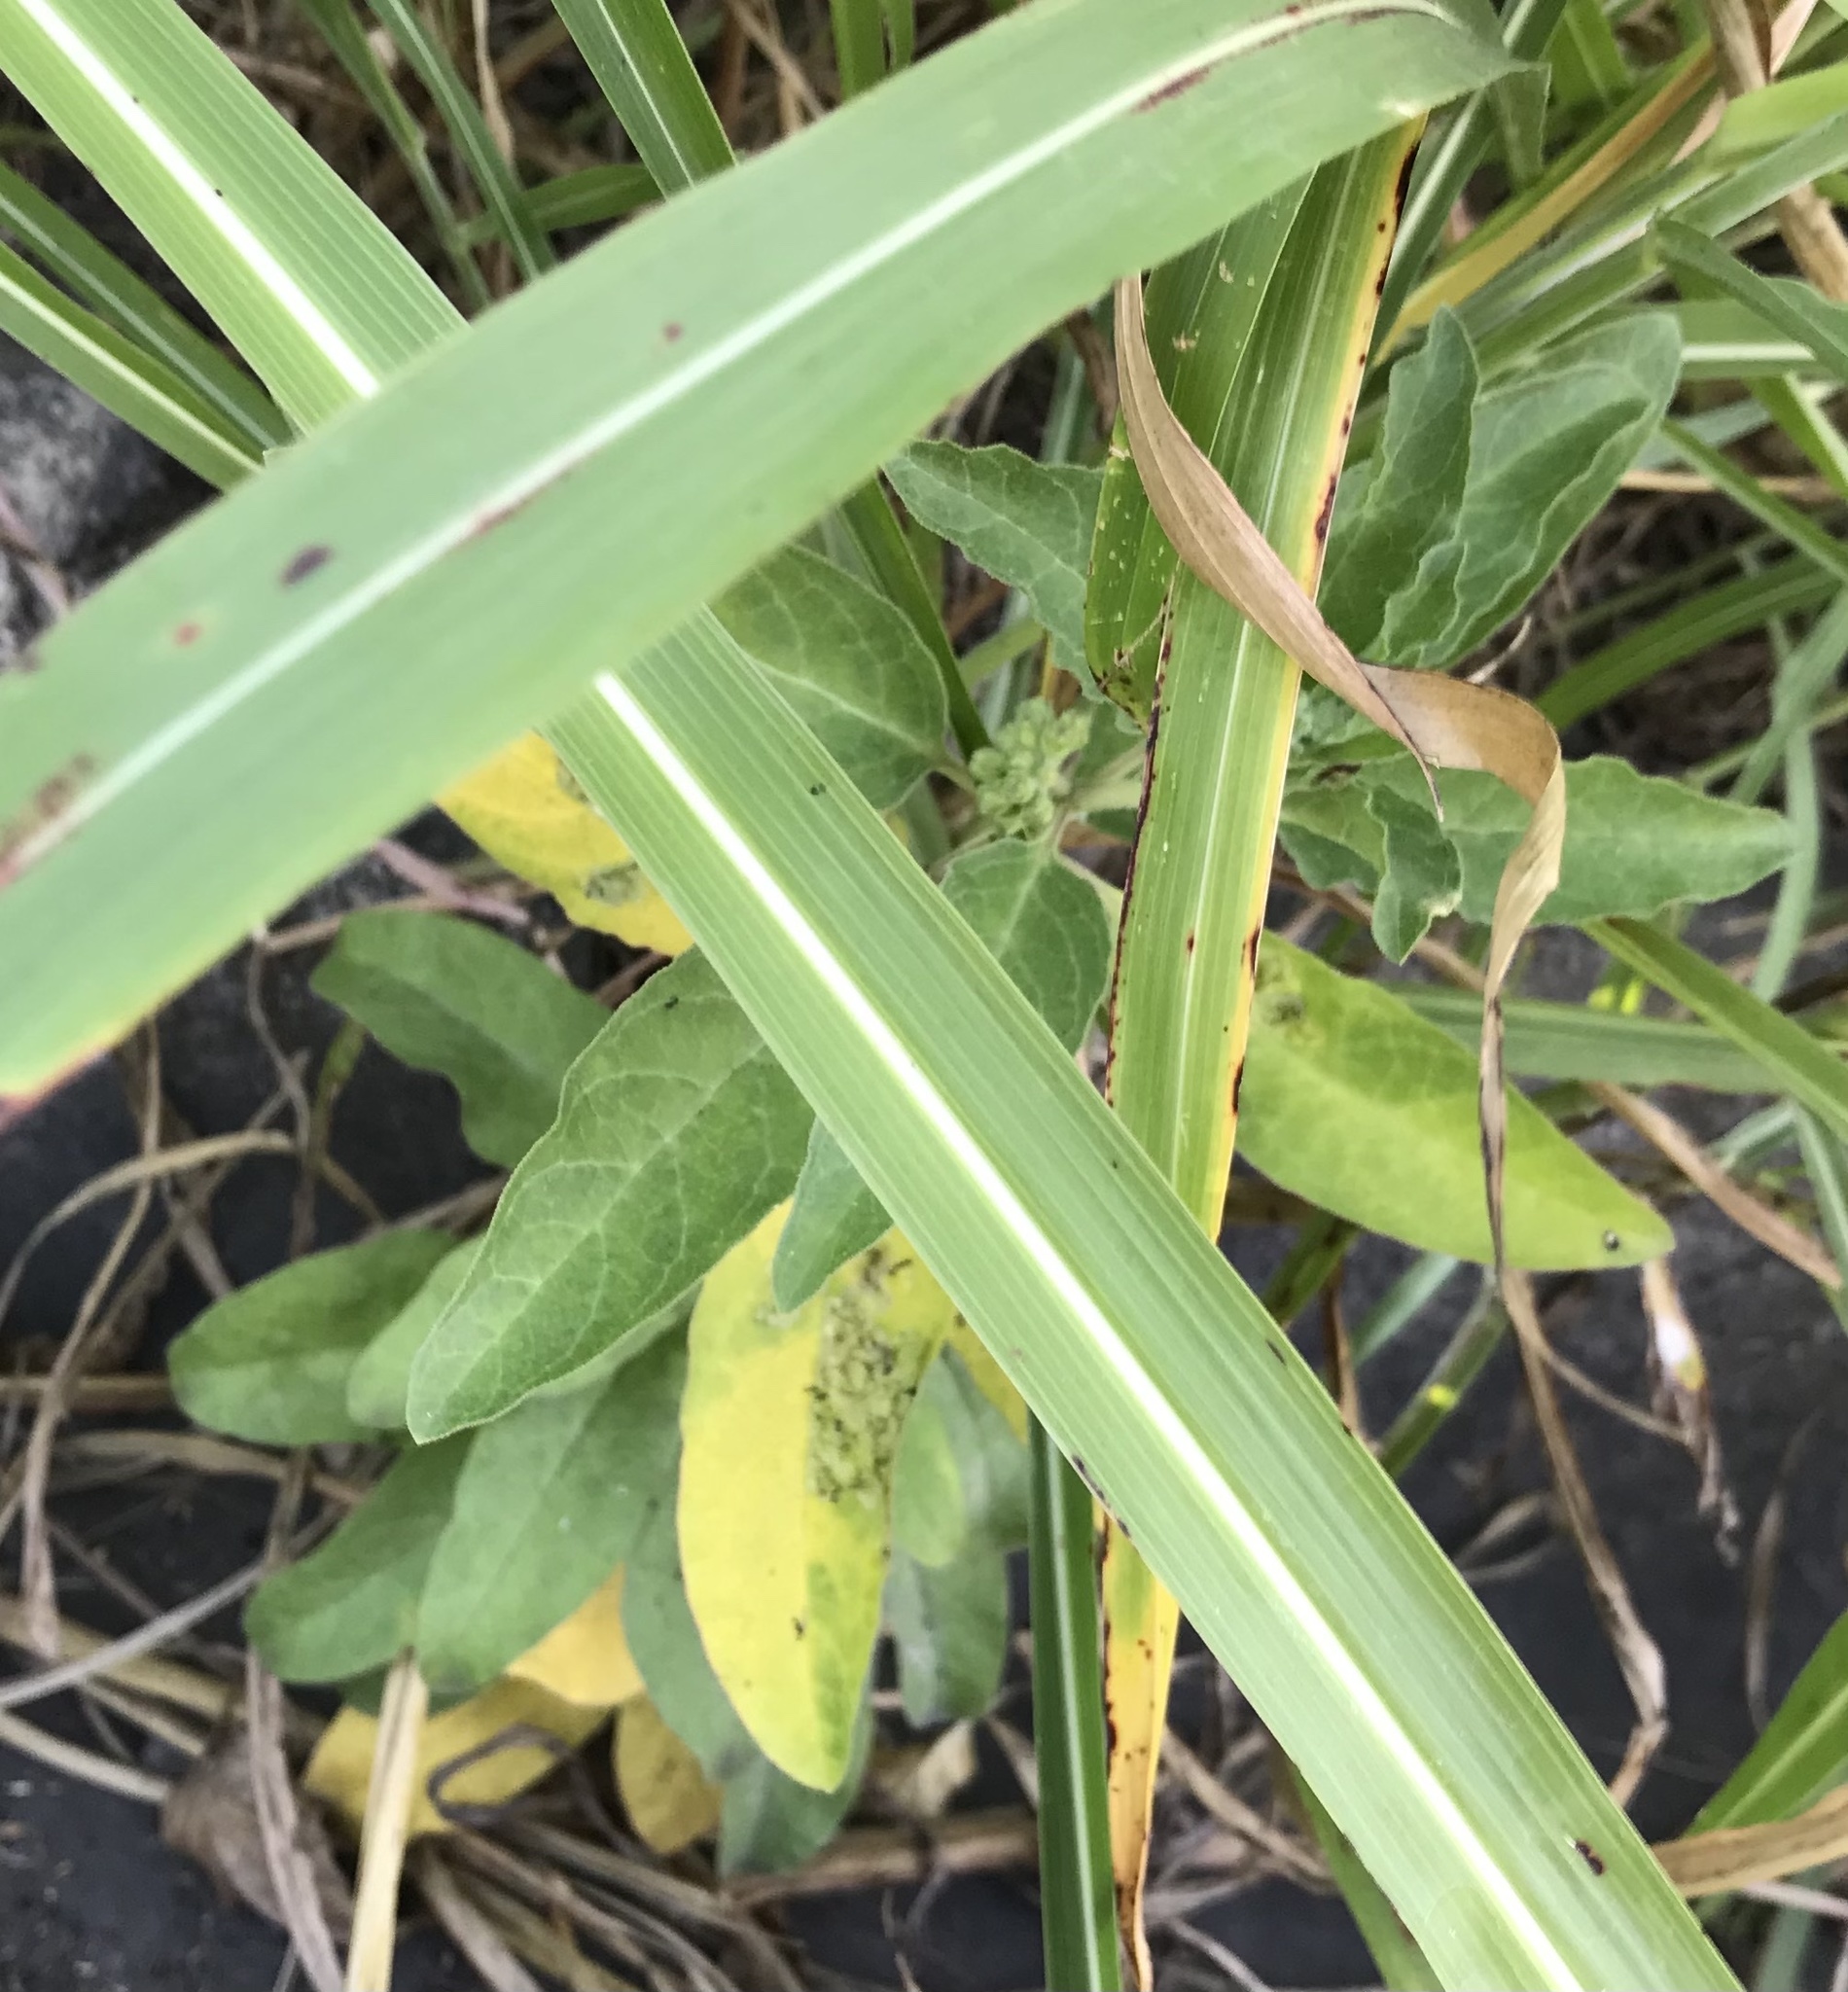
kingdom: Plantae
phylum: Tracheophyta
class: Magnoliopsida
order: Gentianales
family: Apocynaceae
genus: Asclepias
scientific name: Asclepias oenotheroides
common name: Zizotes milkweed
